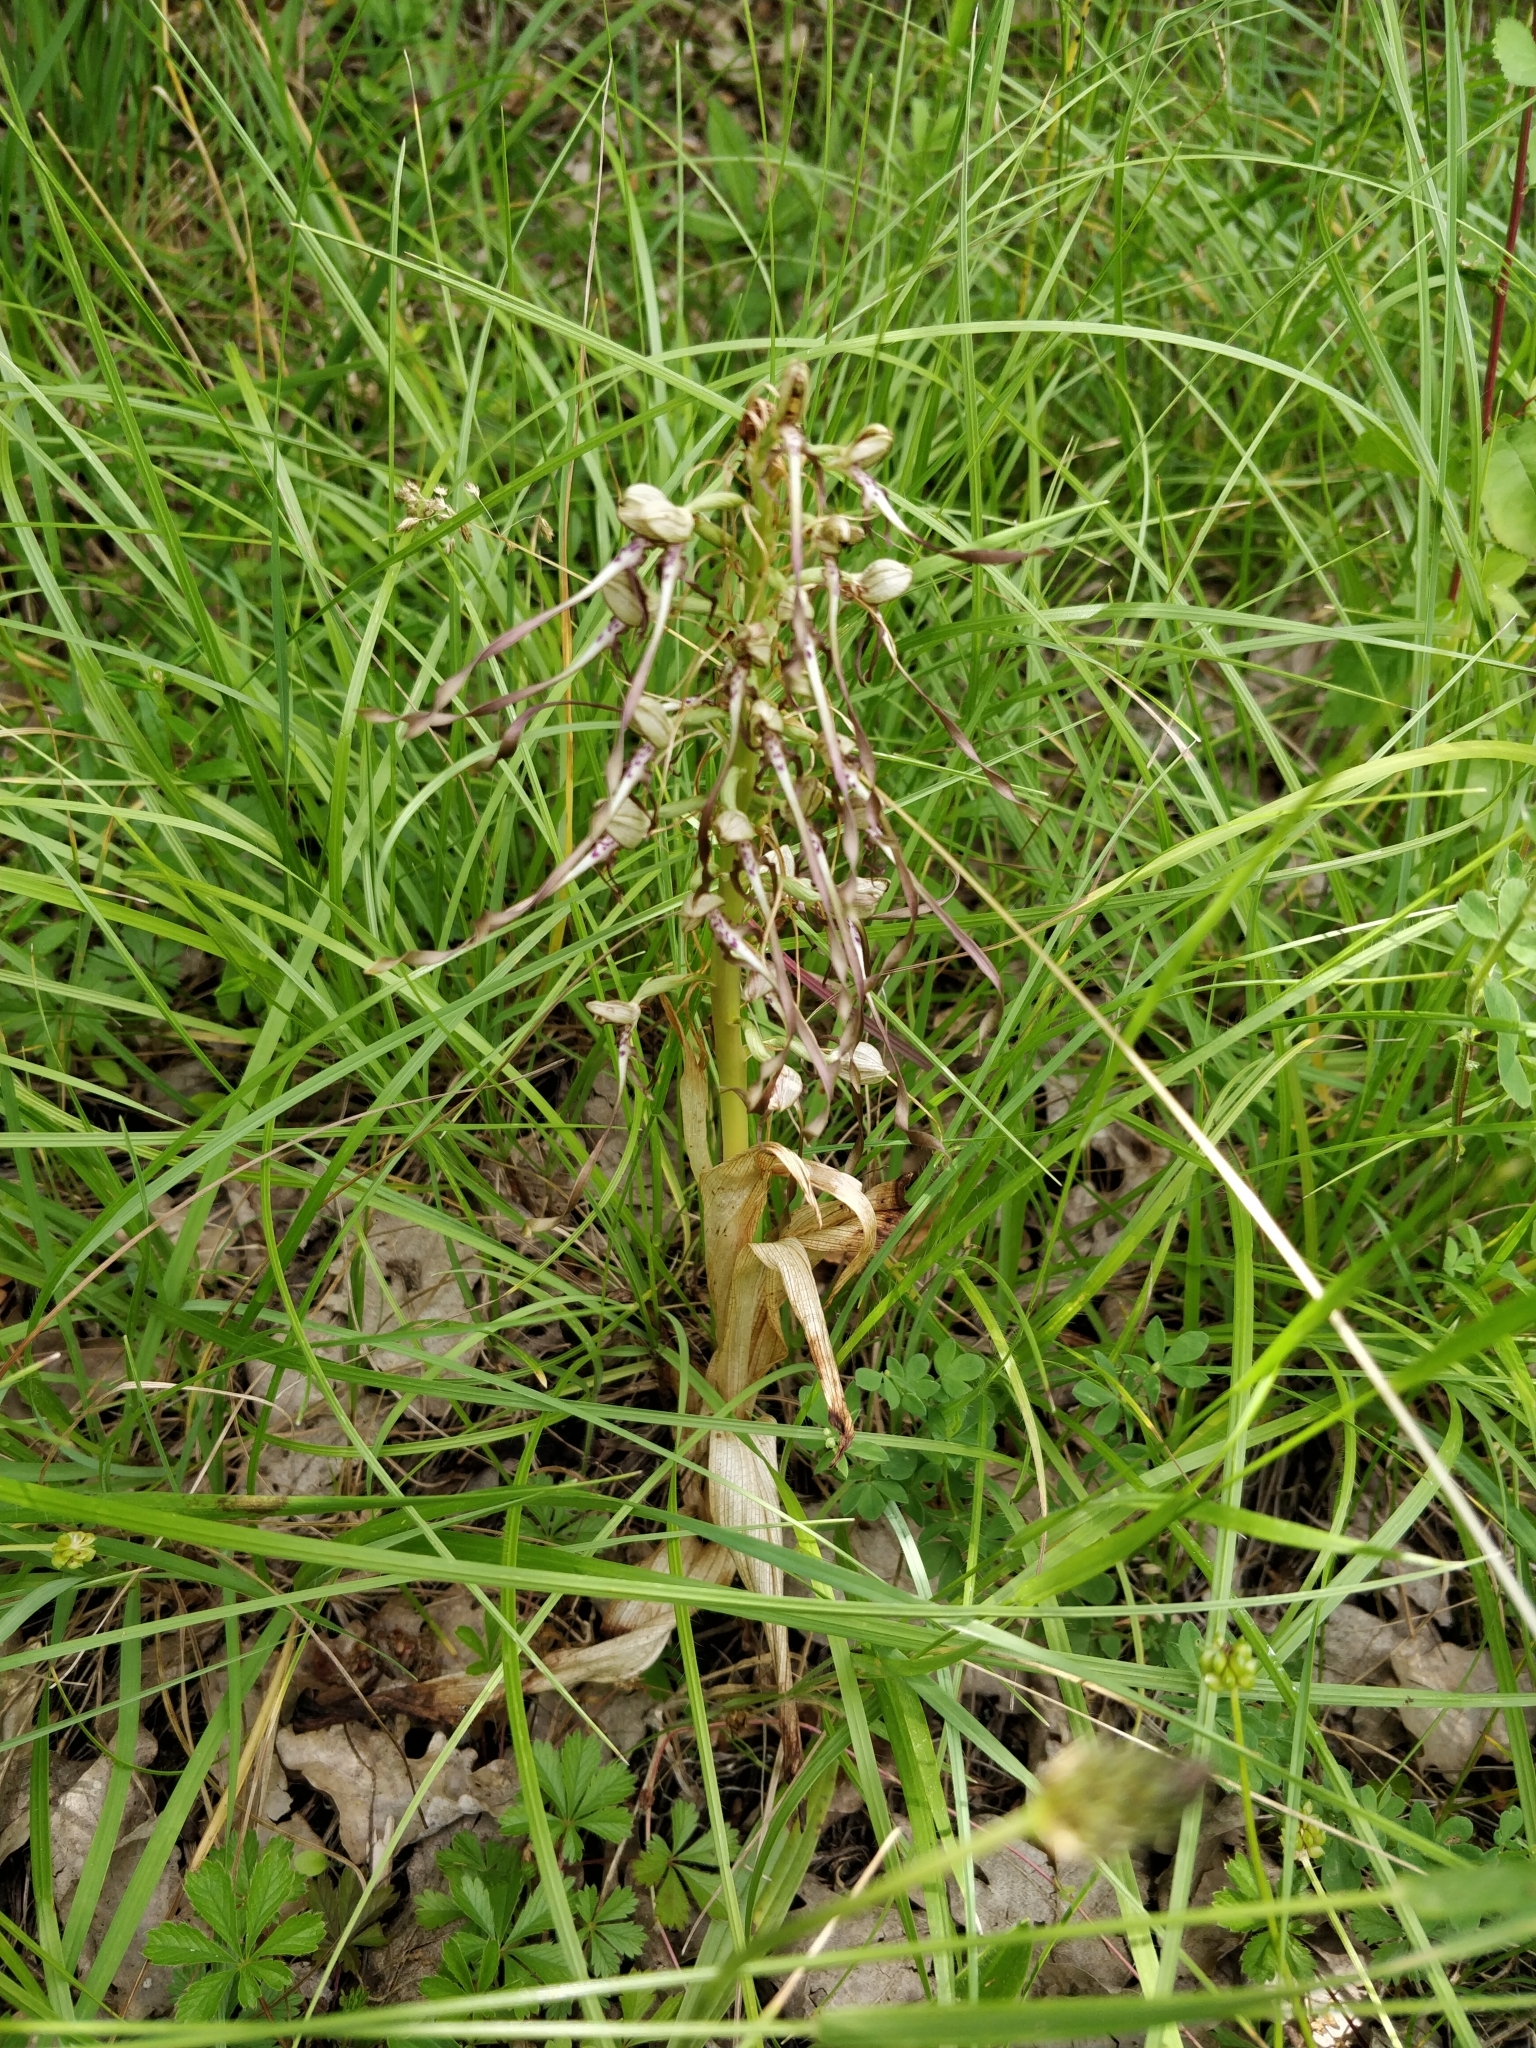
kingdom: Plantae
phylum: Tracheophyta
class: Liliopsida
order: Asparagales
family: Orchidaceae
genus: Himantoglossum
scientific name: Himantoglossum hircinum
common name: Lizard orchid
